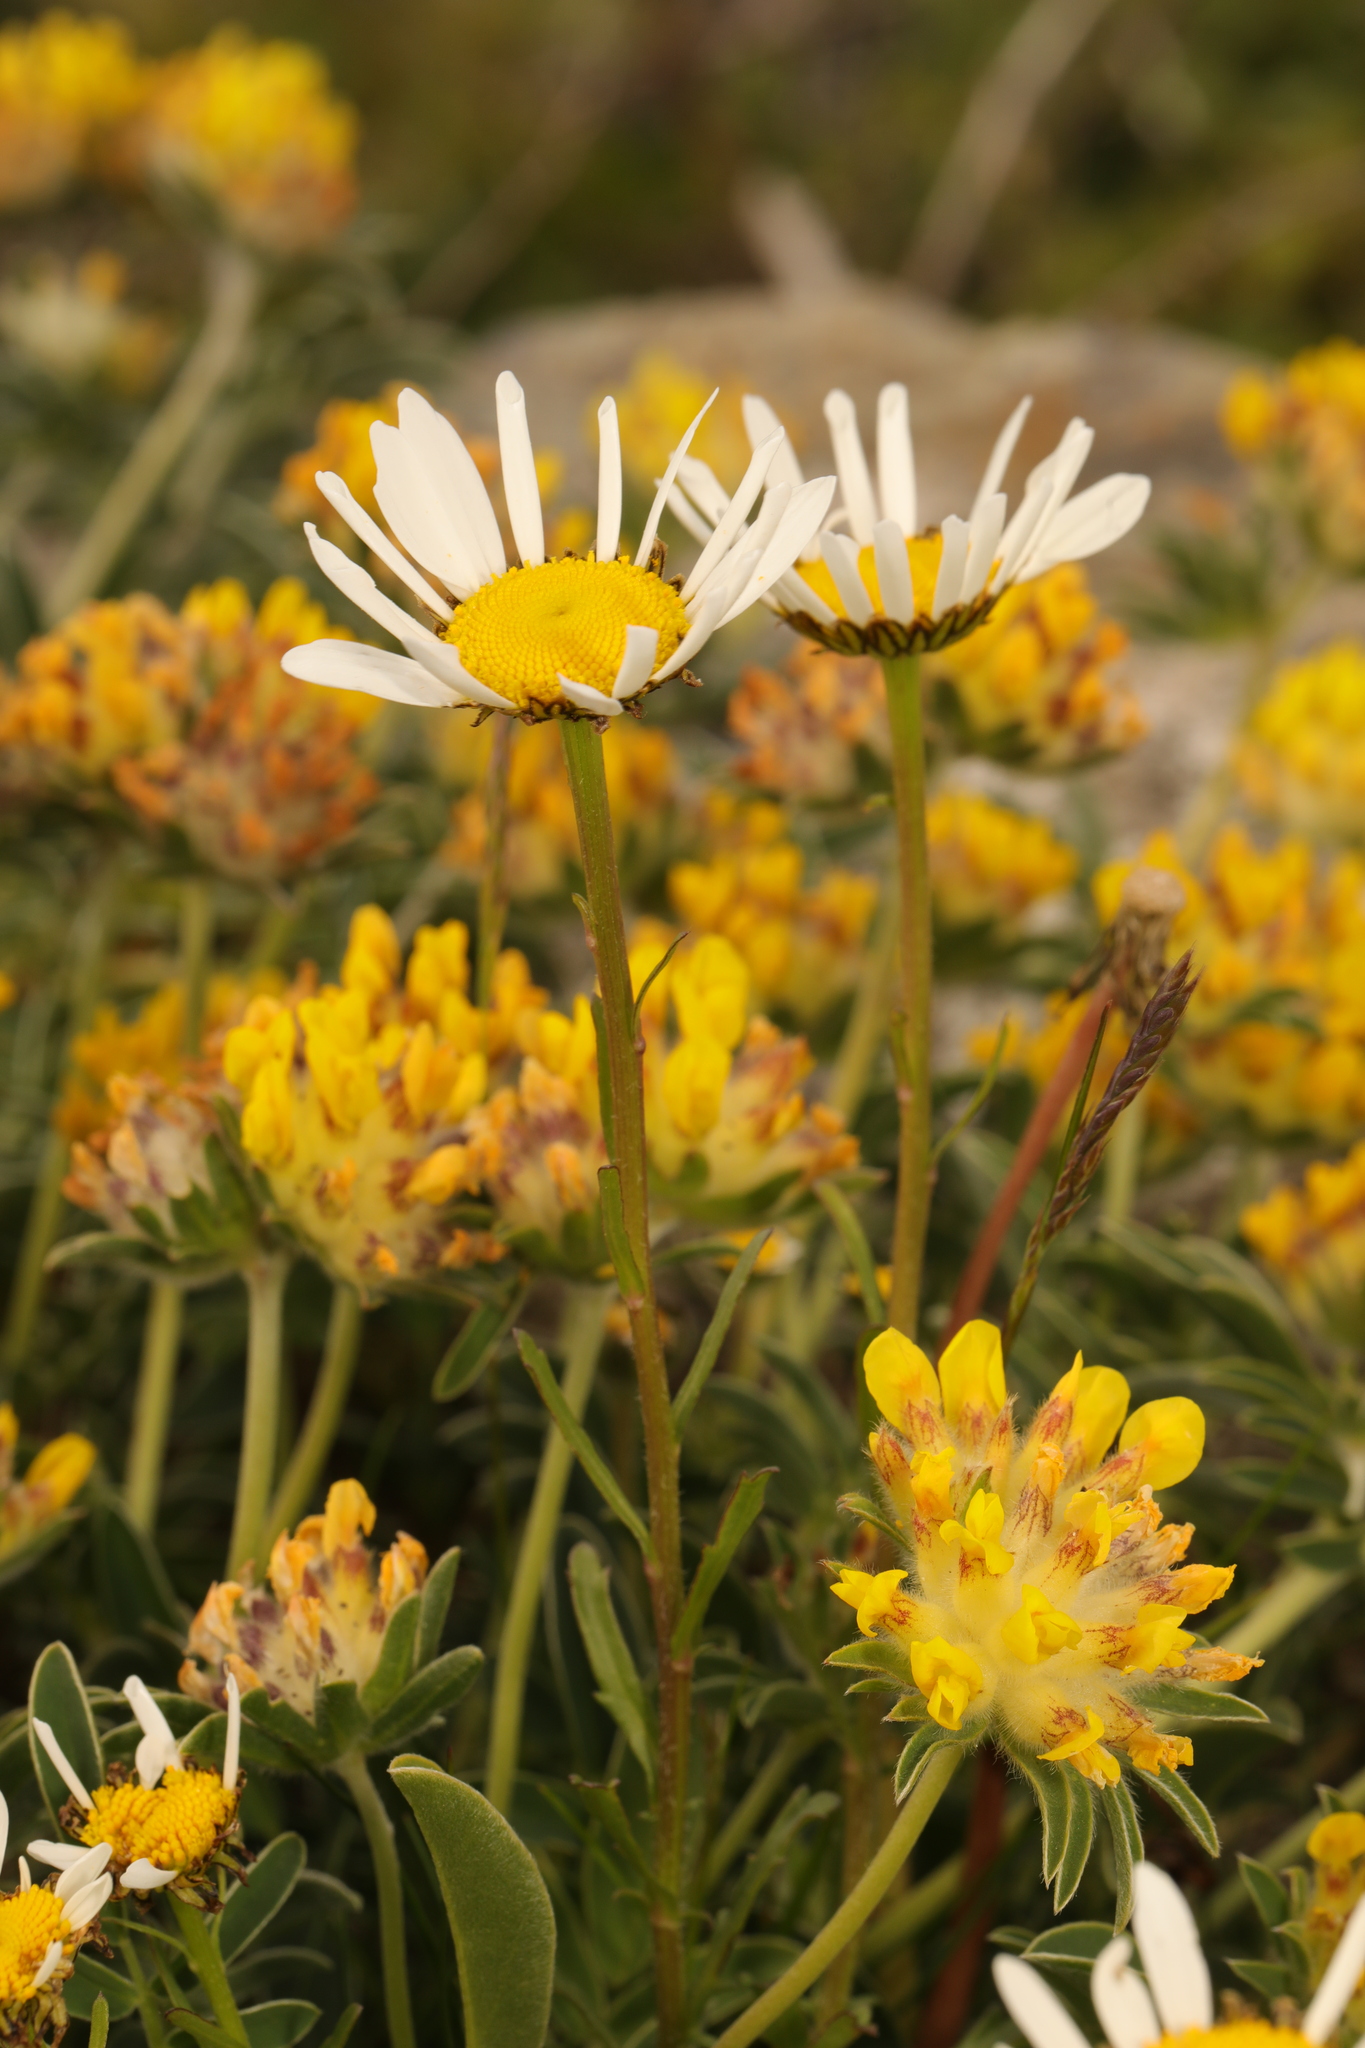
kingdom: Plantae
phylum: Tracheophyta
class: Magnoliopsida
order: Fabales
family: Fabaceae
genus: Anthyllis
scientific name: Anthyllis vulneraria
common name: Kidney vetch
